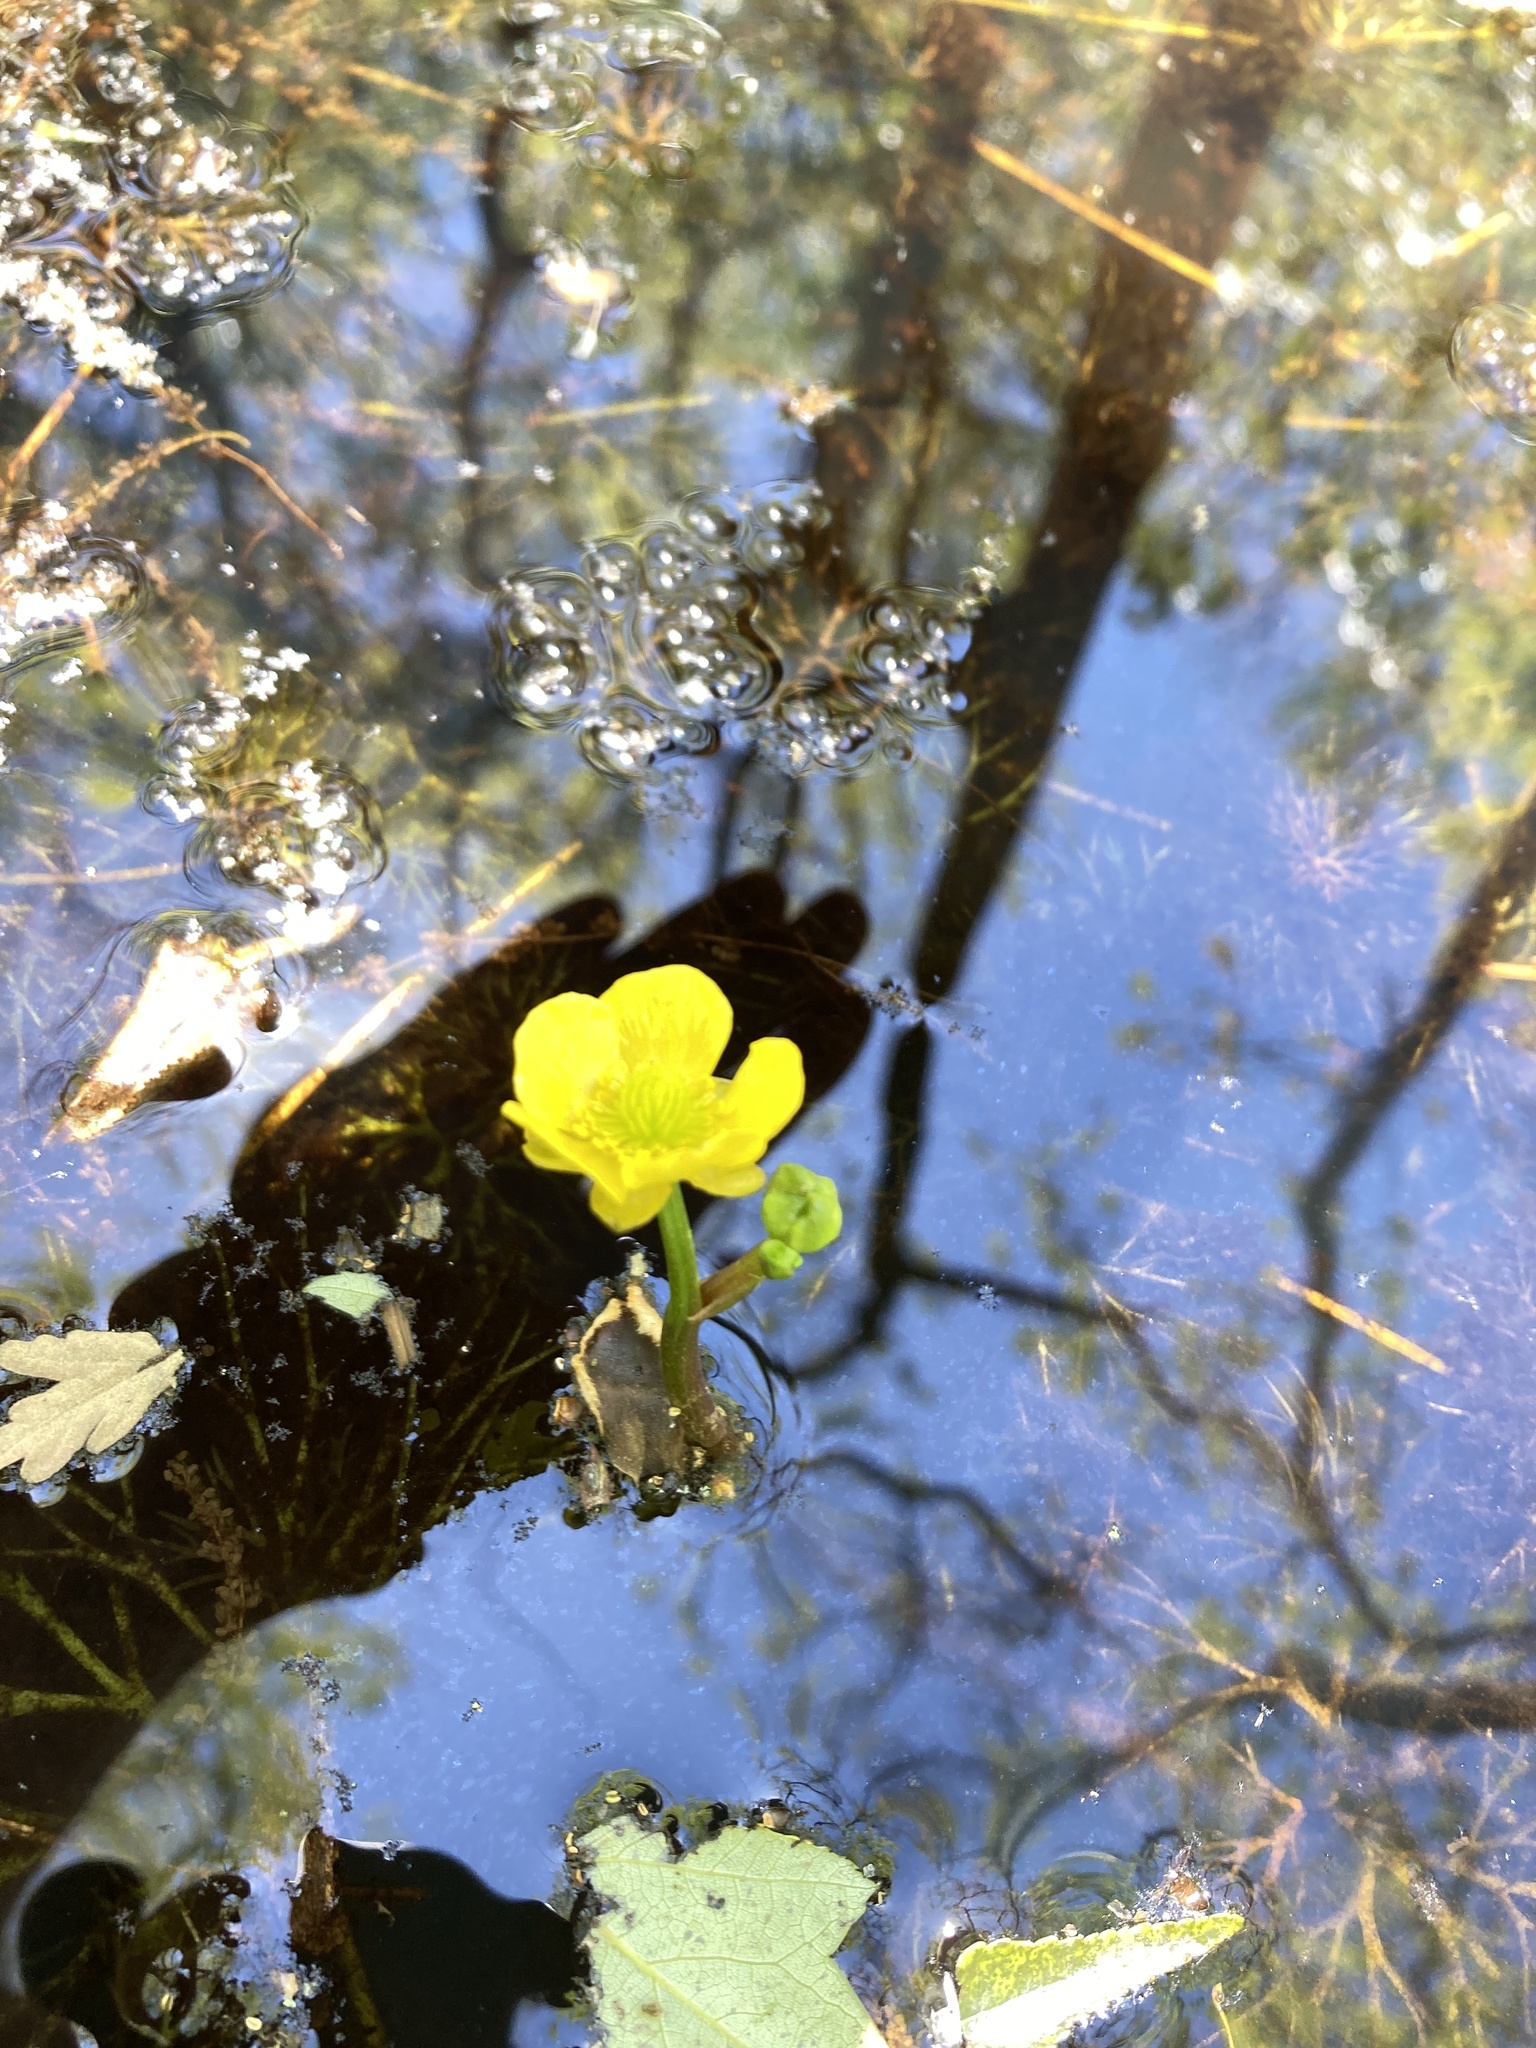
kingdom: Plantae
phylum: Tracheophyta
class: Magnoliopsida
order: Ranunculales
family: Ranunculaceae
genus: Ranunculus
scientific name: Ranunculus flabellaris
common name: Yellow water-crowfoot
